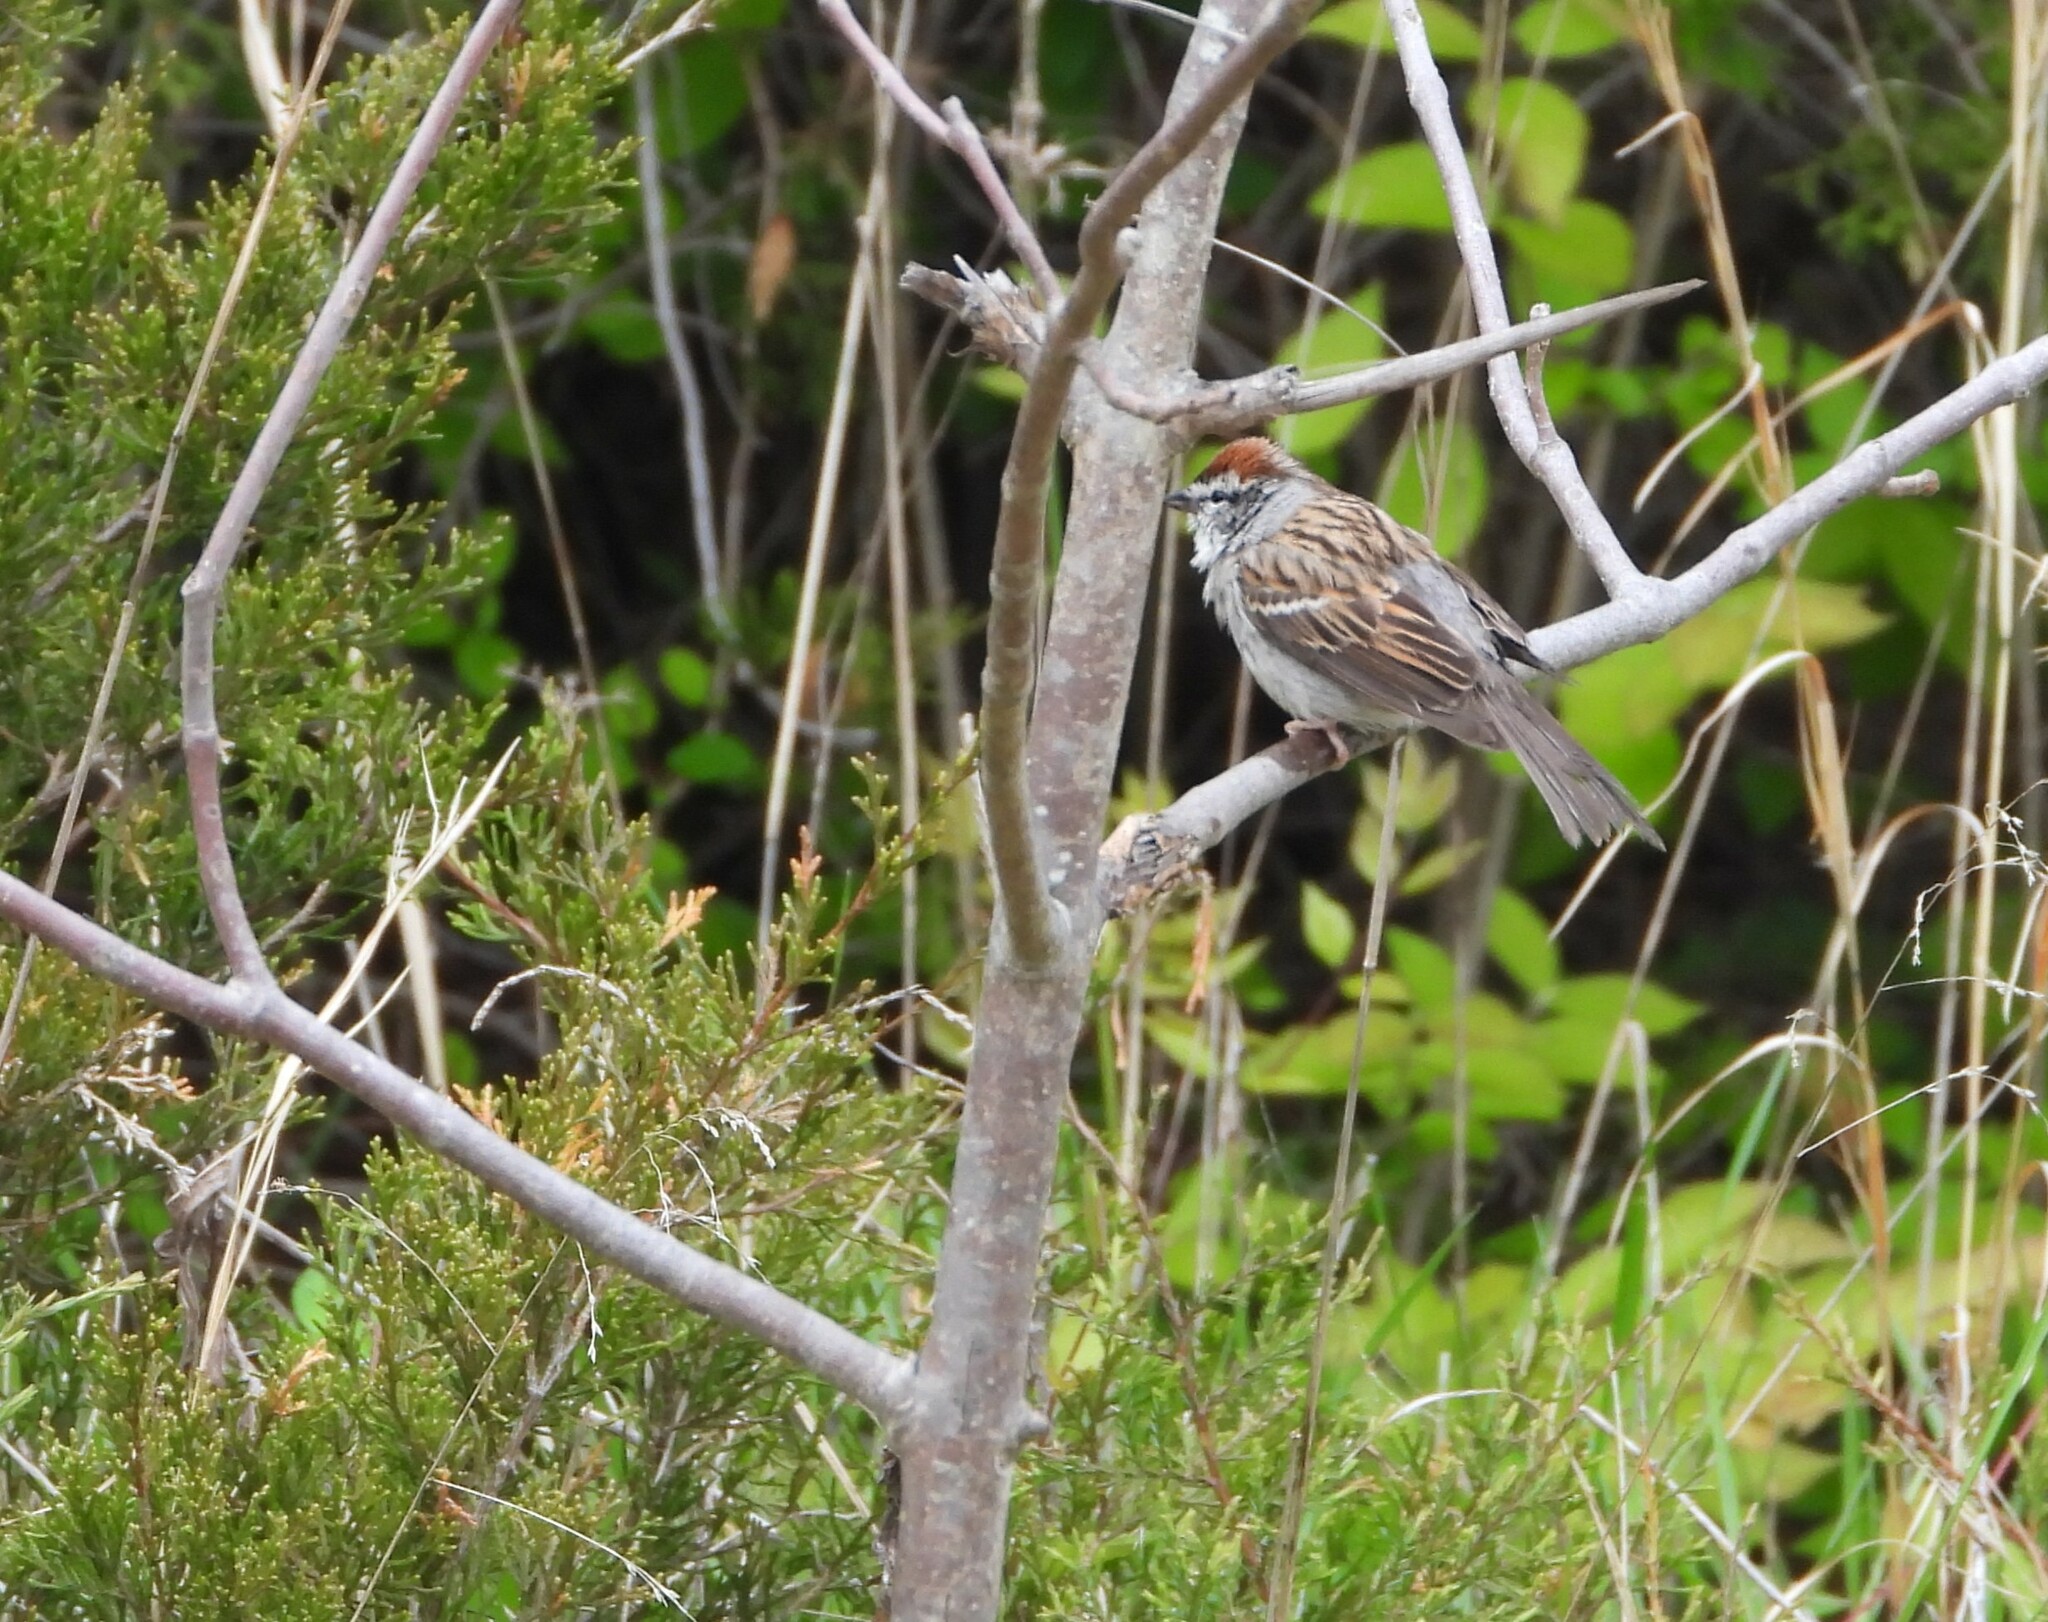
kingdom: Animalia
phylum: Chordata
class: Aves
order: Passeriformes
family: Passerellidae
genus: Spizella
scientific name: Spizella passerina
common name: Chipping sparrow
